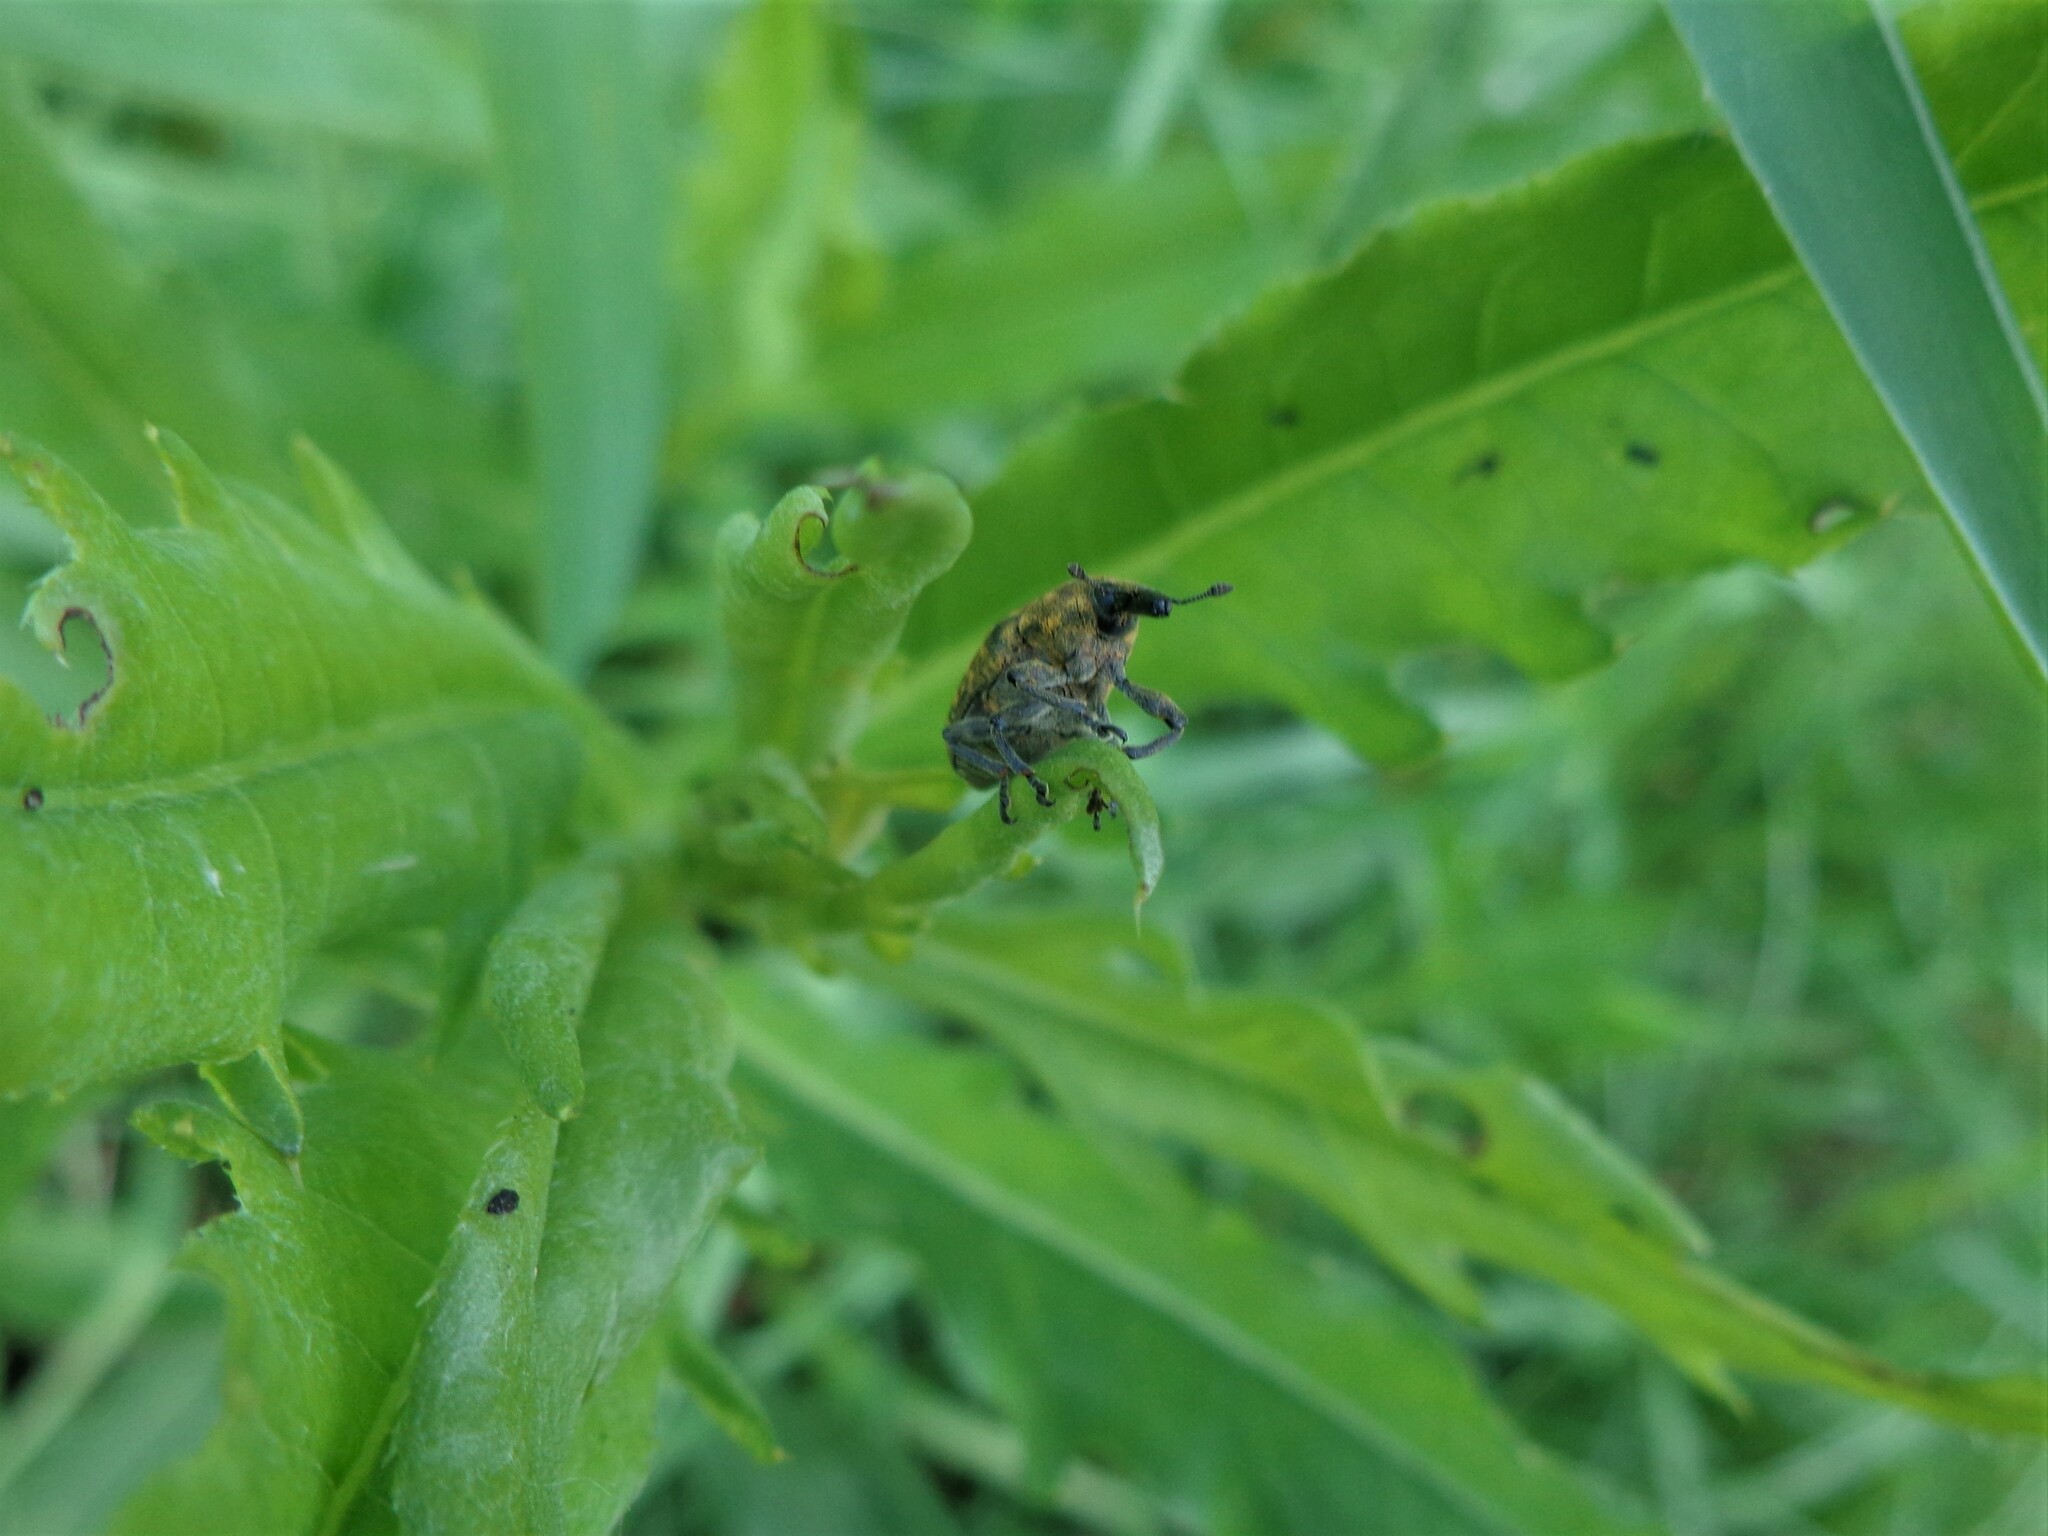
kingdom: Animalia
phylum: Arthropoda
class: Insecta
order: Coleoptera
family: Curculionidae
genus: Larinus
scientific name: Larinus turbinatus
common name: Weevil
